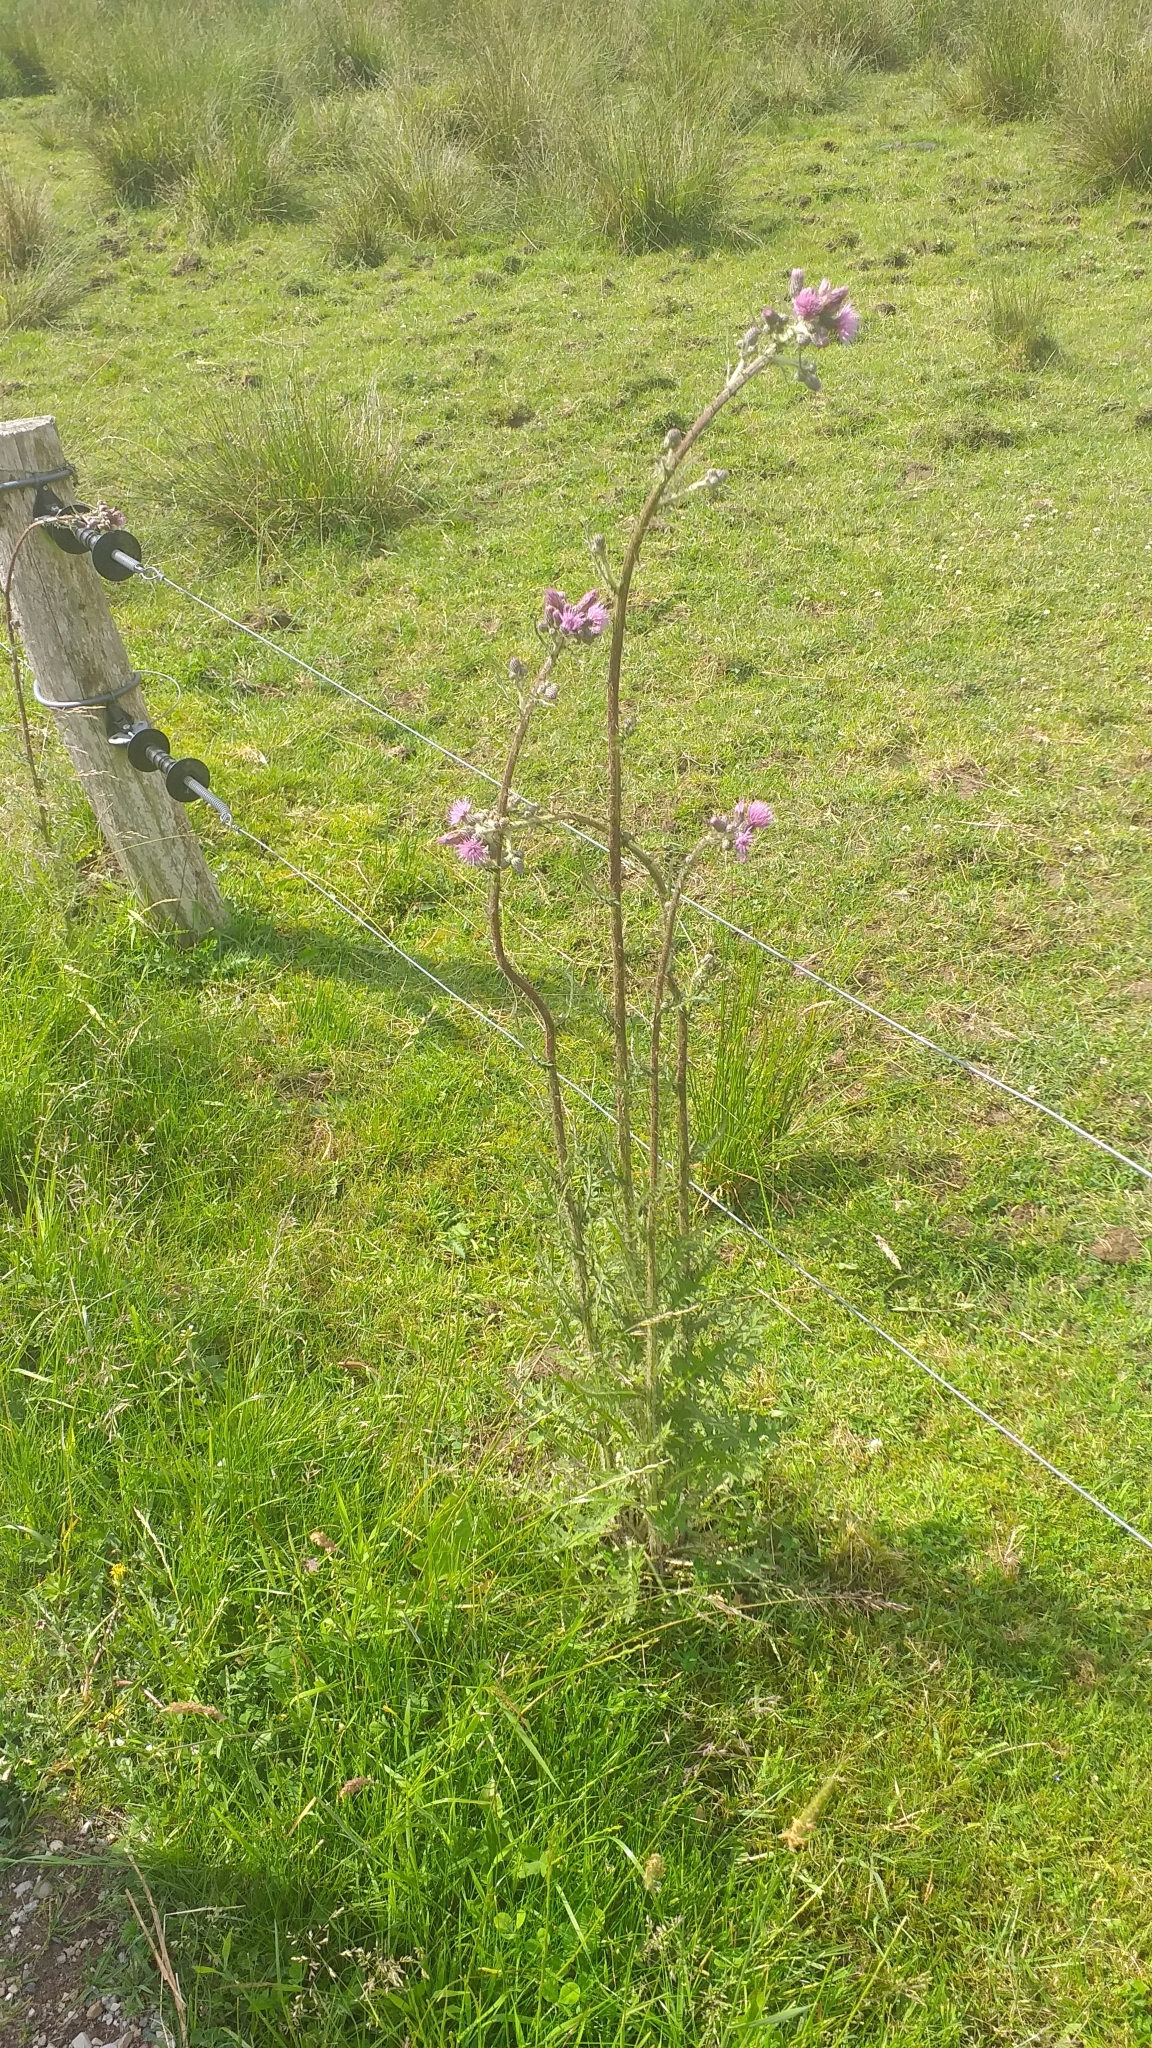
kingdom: Plantae
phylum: Tracheophyta
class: Magnoliopsida
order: Asterales
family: Asteraceae
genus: Cirsium
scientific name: Cirsium palustre
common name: Marsh thistle
